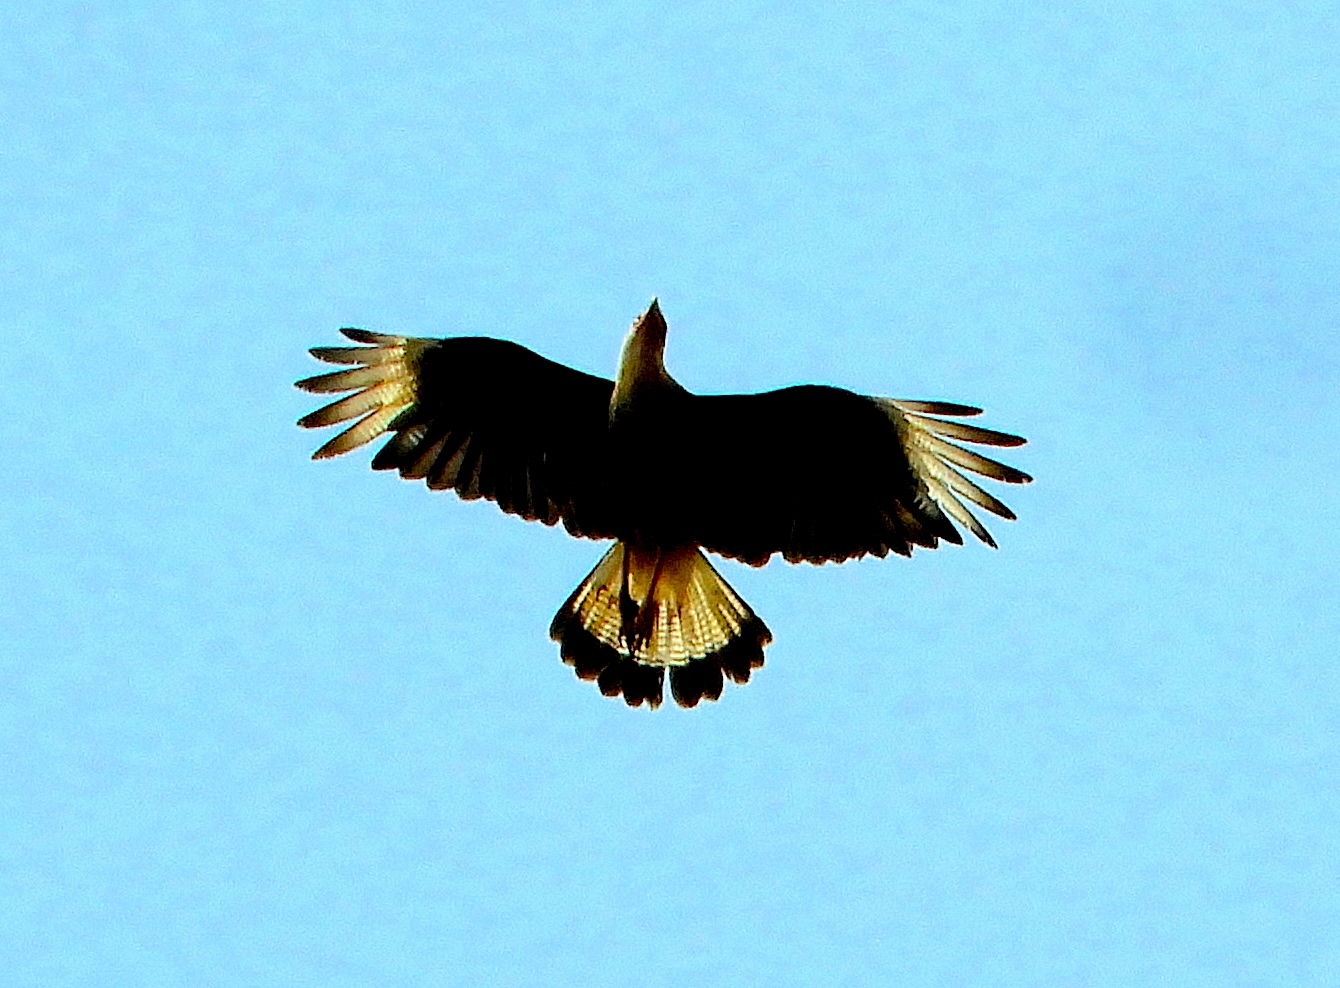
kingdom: Animalia
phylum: Chordata
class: Aves
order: Falconiformes
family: Falconidae
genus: Caracara
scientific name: Caracara plancus
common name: Southern caracara
